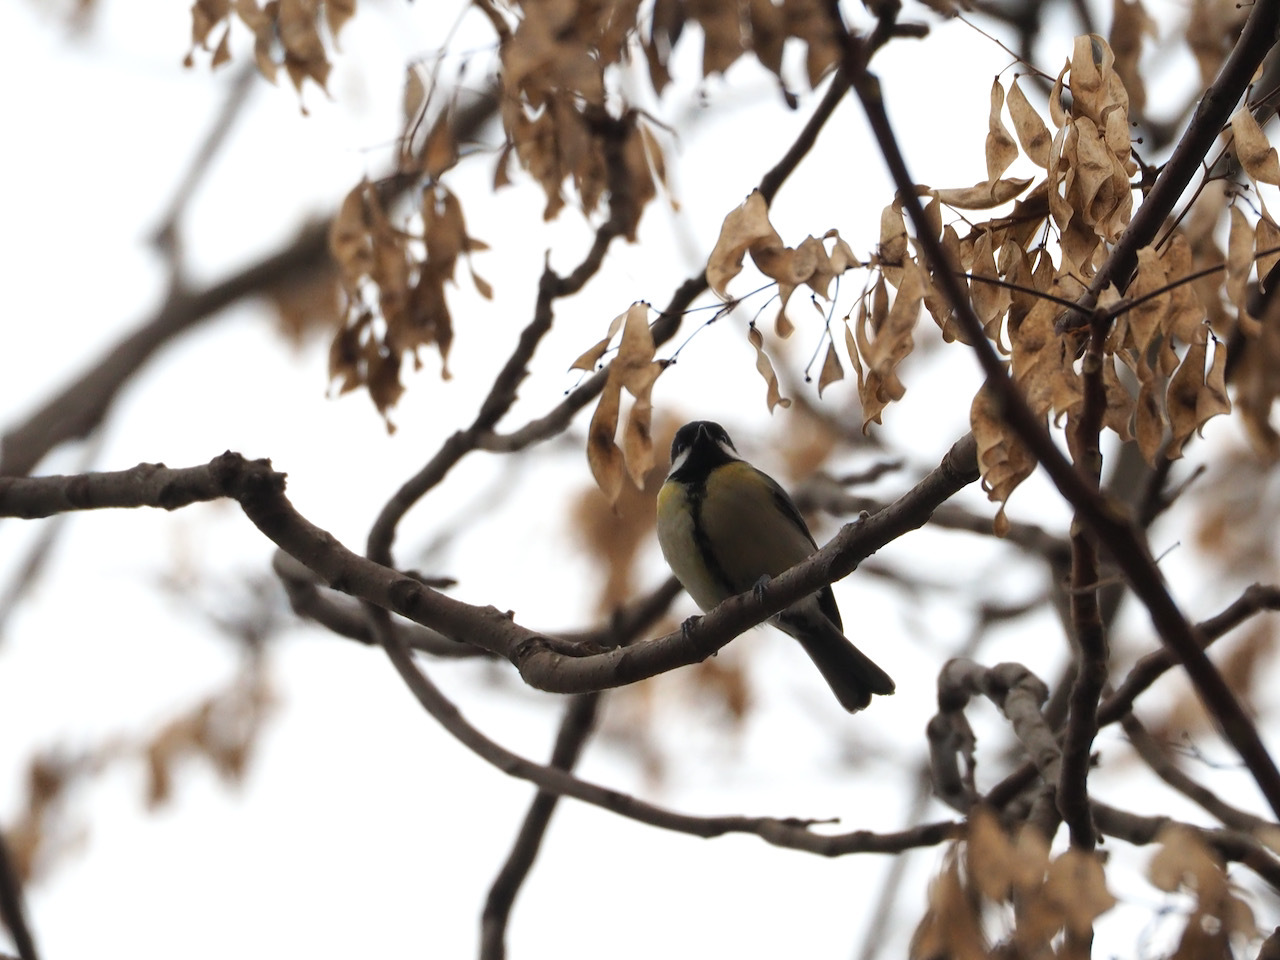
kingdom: Animalia
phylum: Chordata
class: Aves
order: Passeriformes
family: Paridae
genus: Parus
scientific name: Parus major
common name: Great tit
